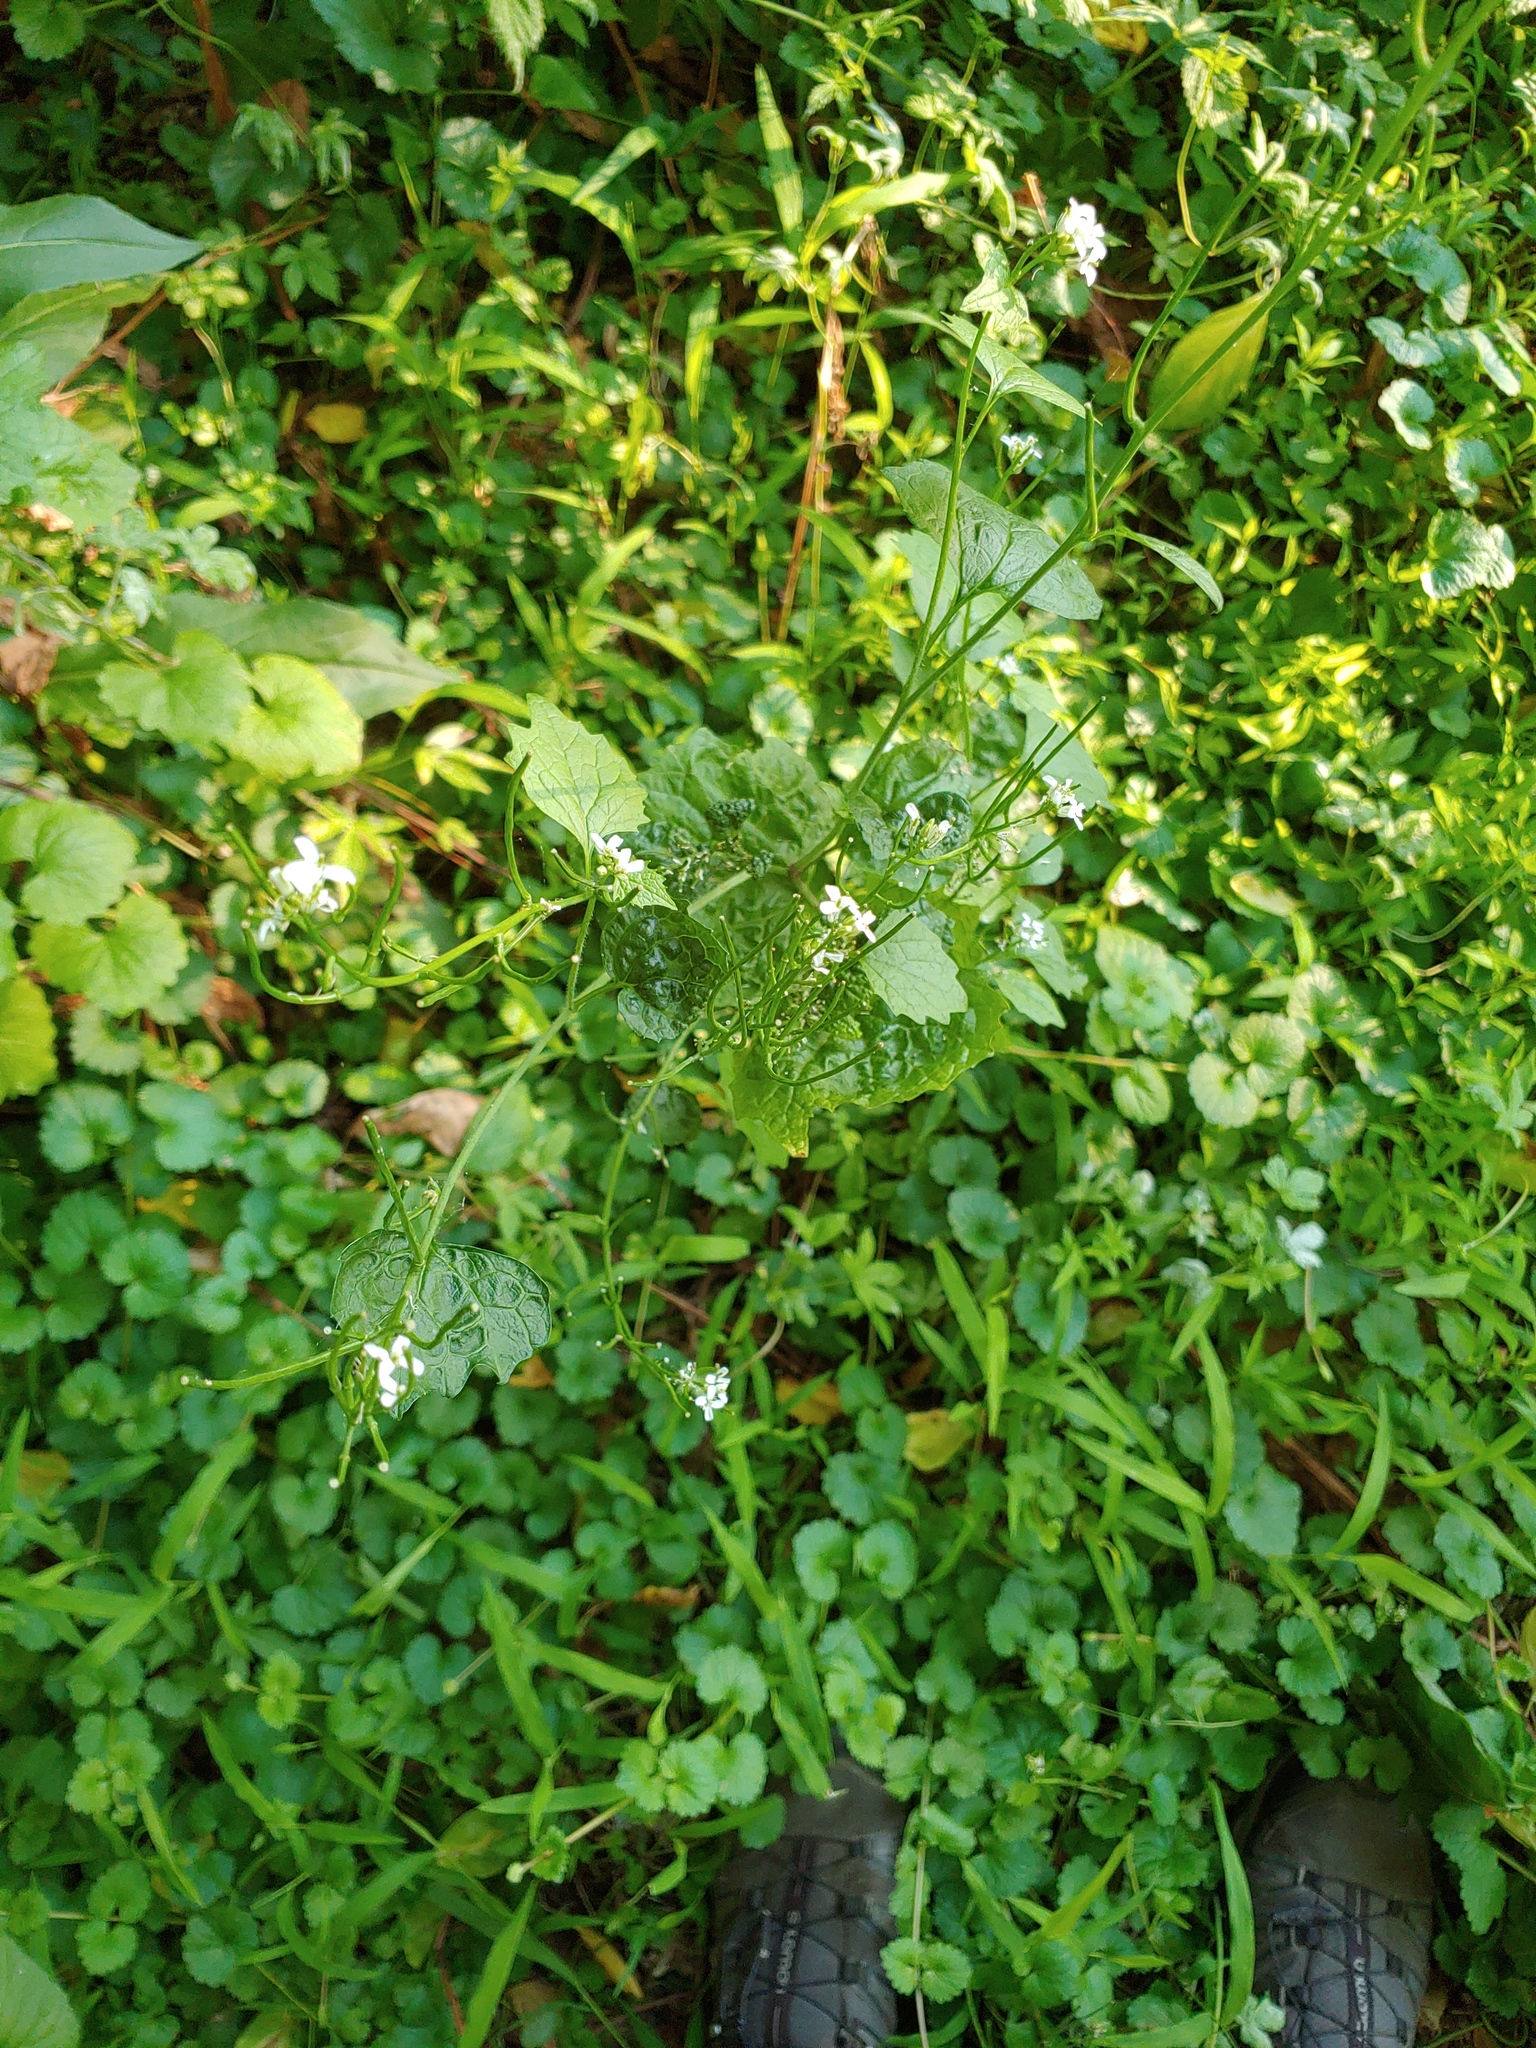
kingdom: Plantae
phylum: Tracheophyta
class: Magnoliopsida
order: Brassicales
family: Brassicaceae
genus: Alliaria
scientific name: Alliaria petiolata
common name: Garlic mustard
